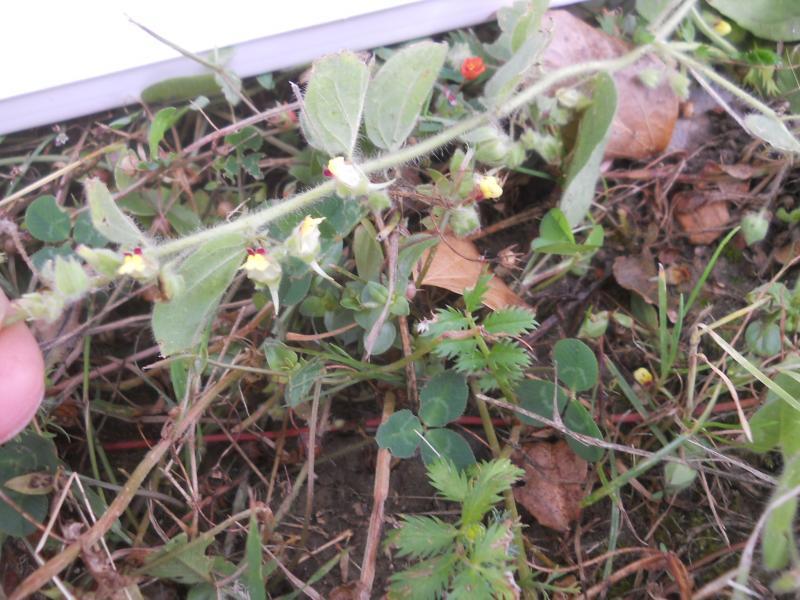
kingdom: Plantae
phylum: Tracheophyta
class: Magnoliopsida
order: Lamiales
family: Plantaginaceae
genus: Kickxia
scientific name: Kickxia spuria
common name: Round-leaved fluellen
